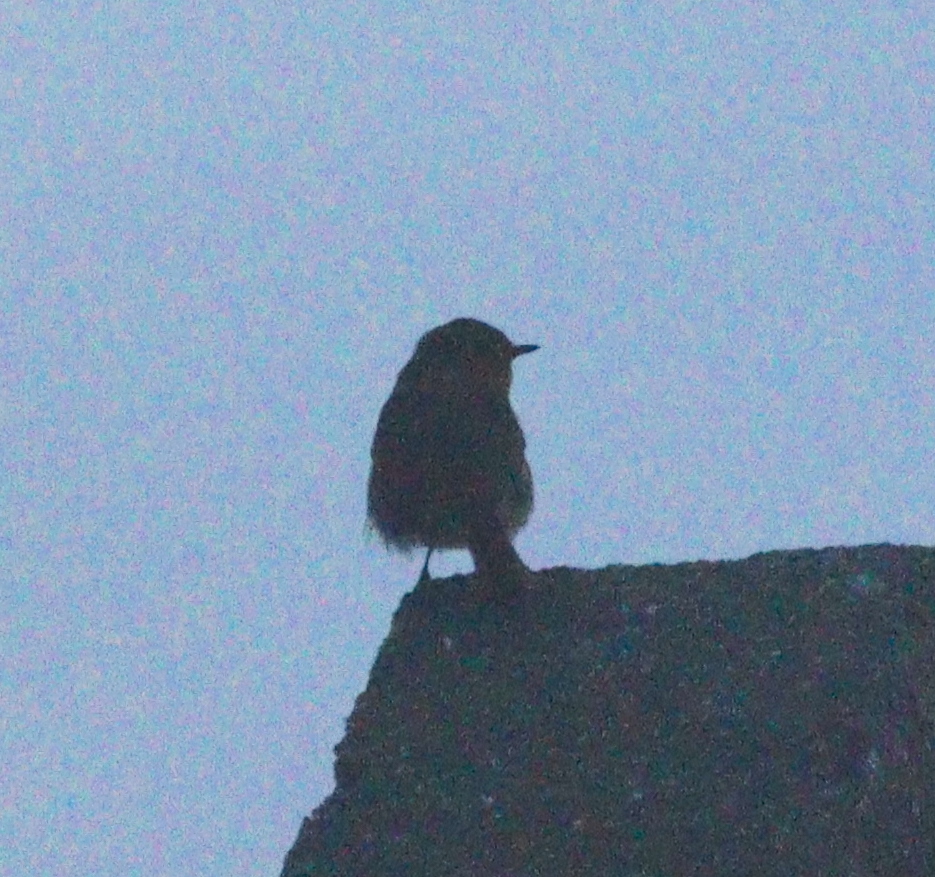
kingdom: Animalia
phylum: Chordata
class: Aves
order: Passeriformes
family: Muscicapidae
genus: Erithacus
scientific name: Erithacus rubecula
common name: European robin
